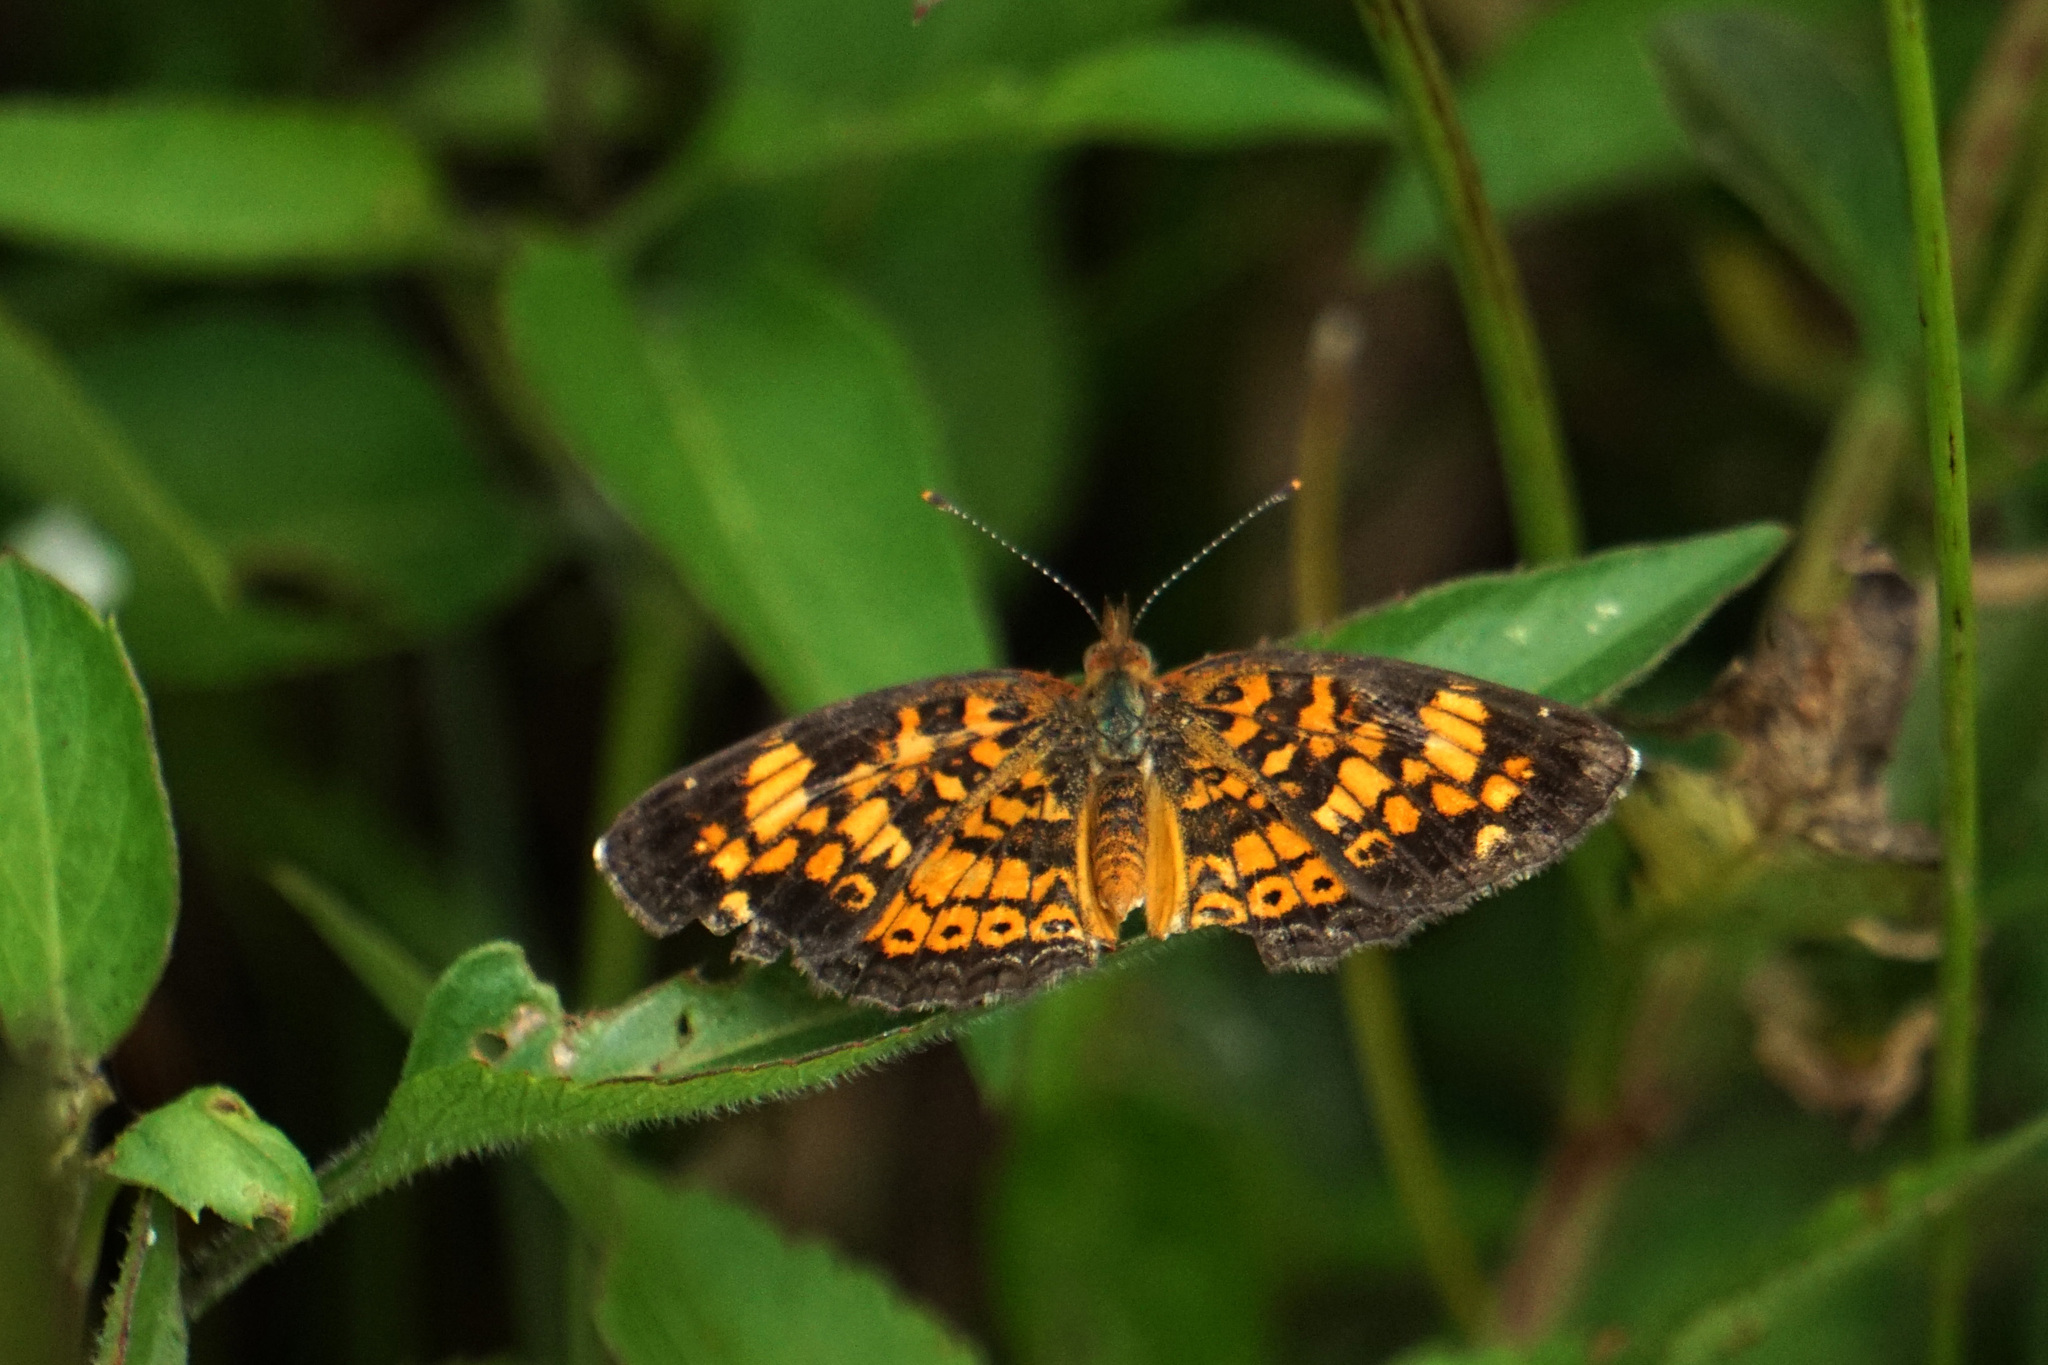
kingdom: Animalia
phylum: Arthropoda
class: Insecta
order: Lepidoptera
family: Nymphalidae
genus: Phyciodes
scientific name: Phyciodes tharos
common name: Pearl crescent
